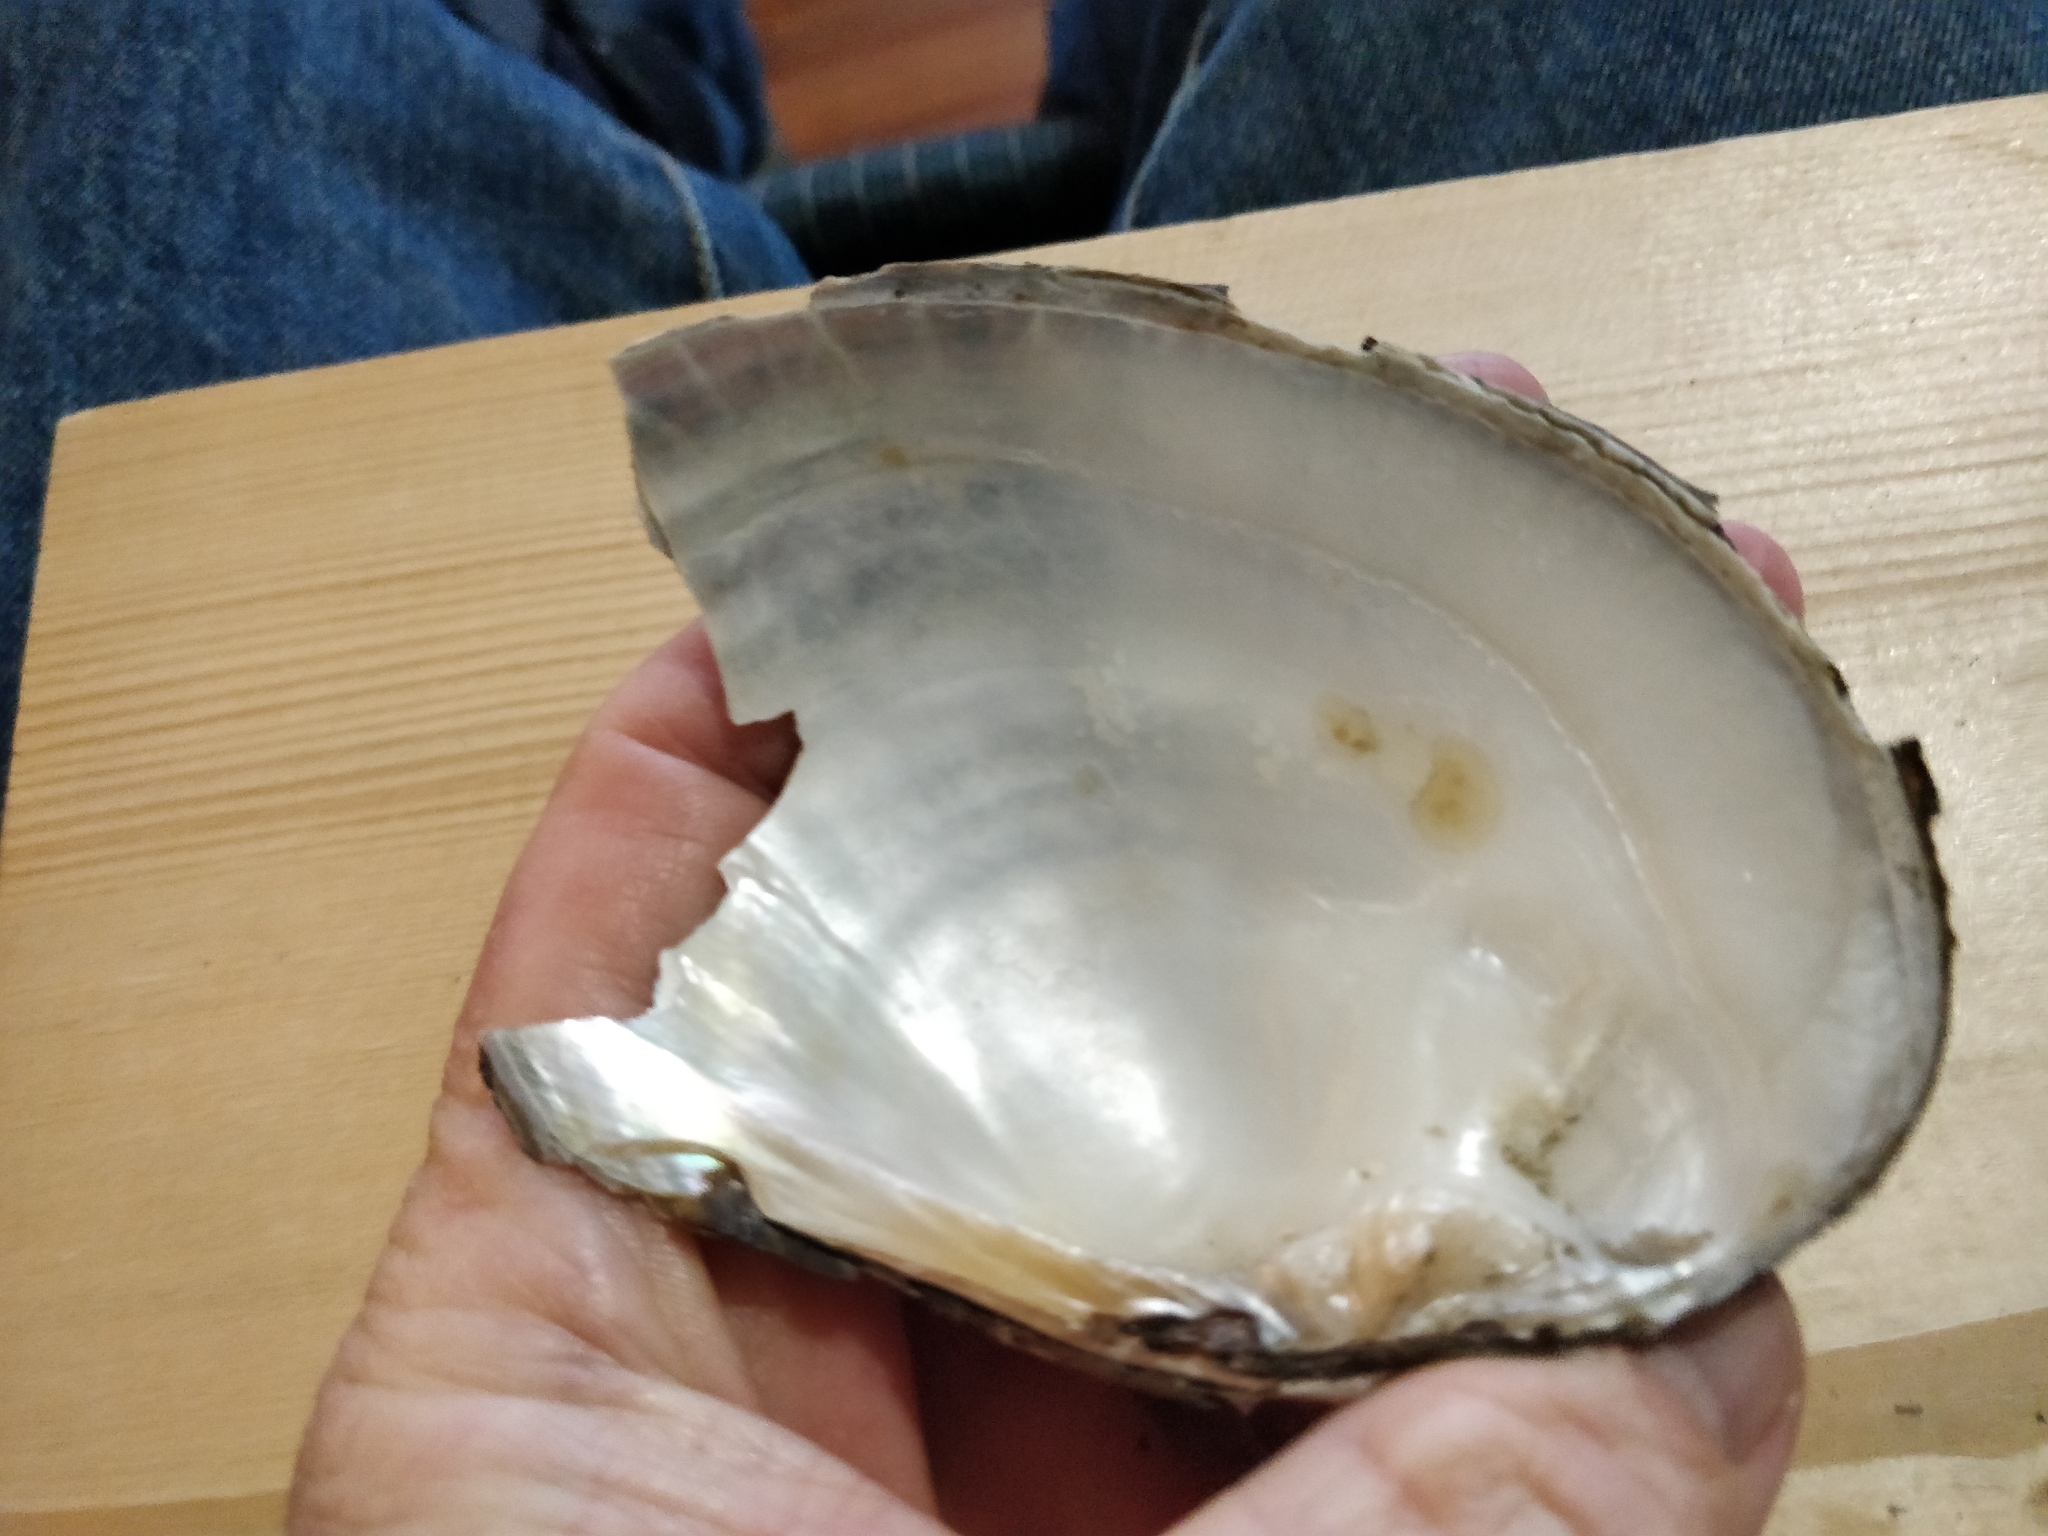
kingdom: Animalia
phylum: Mollusca
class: Bivalvia
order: Unionida
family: Unionidae
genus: Lasmigona
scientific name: Lasmigona complanata
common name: White heelsplitter
